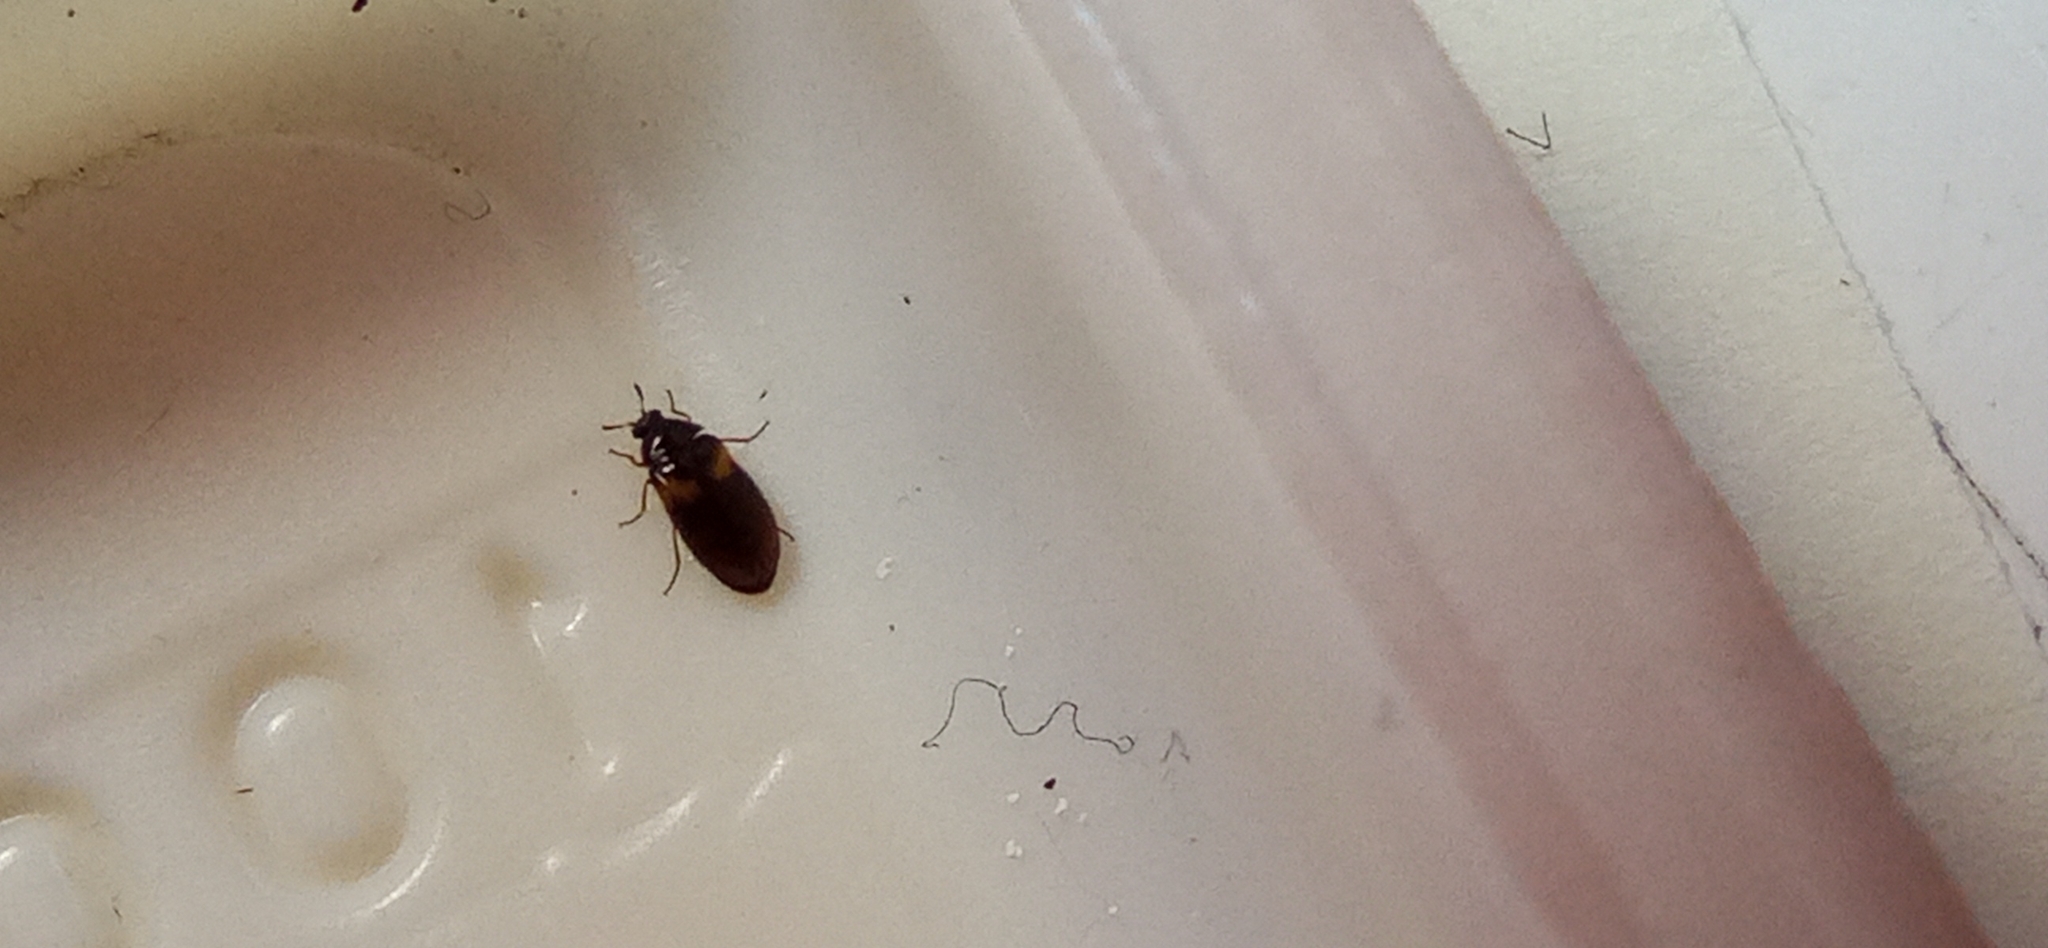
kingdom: Animalia
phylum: Arthropoda
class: Insecta
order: Coleoptera
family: Dermestidae
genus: Reesa
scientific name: Reesa vespulae
